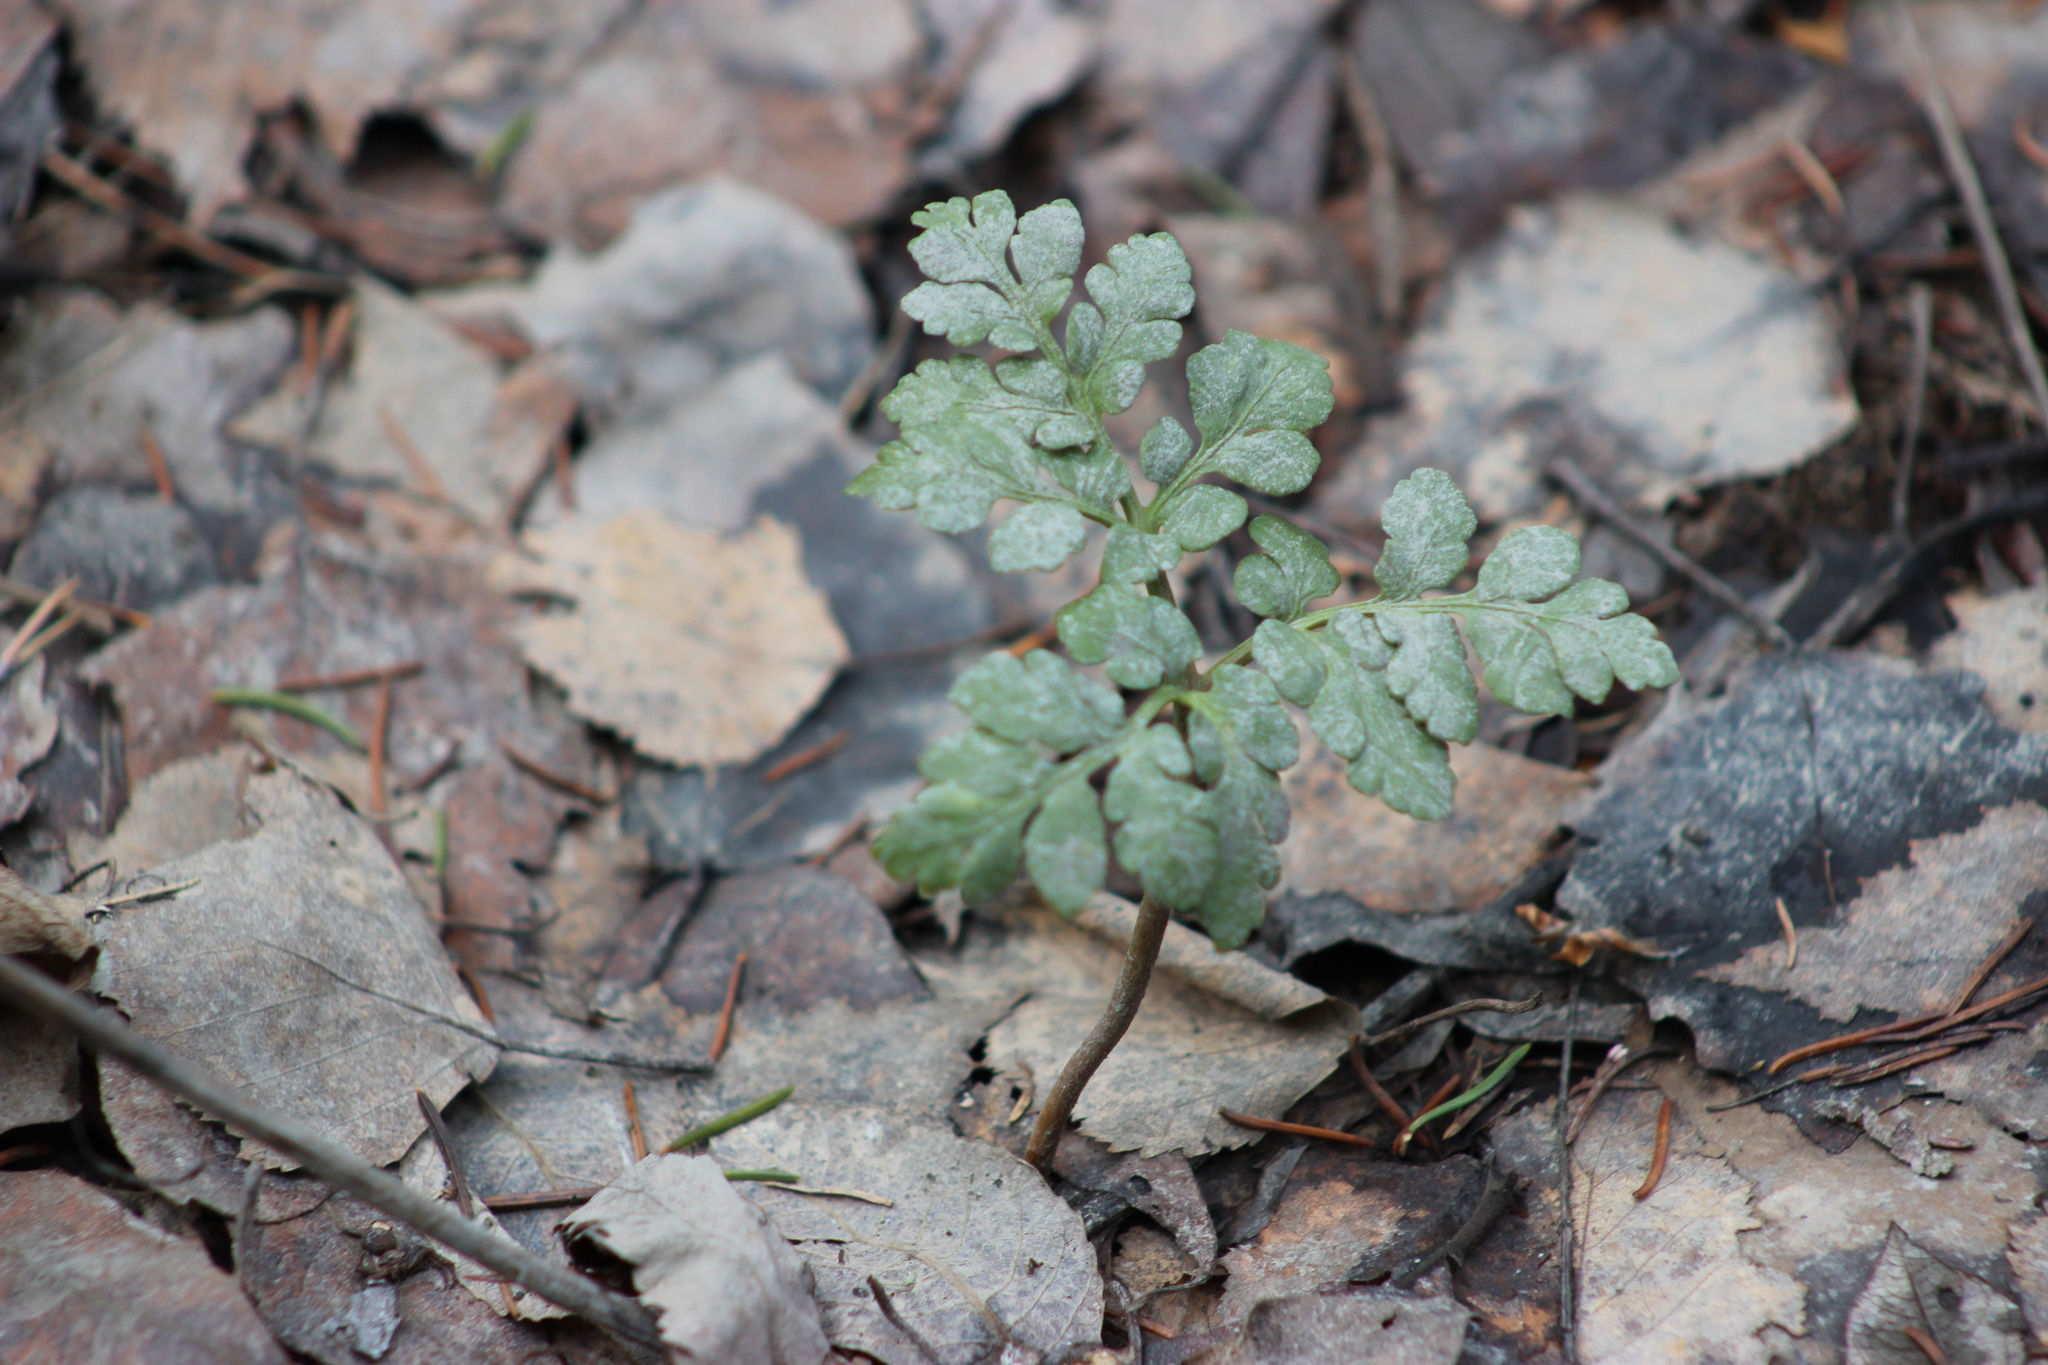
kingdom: Plantae
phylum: Tracheophyta
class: Polypodiopsida
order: Ophioglossales
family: Ophioglossaceae
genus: Sceptridium
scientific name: Sceptridium multifidum
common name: Leathery grape fern
